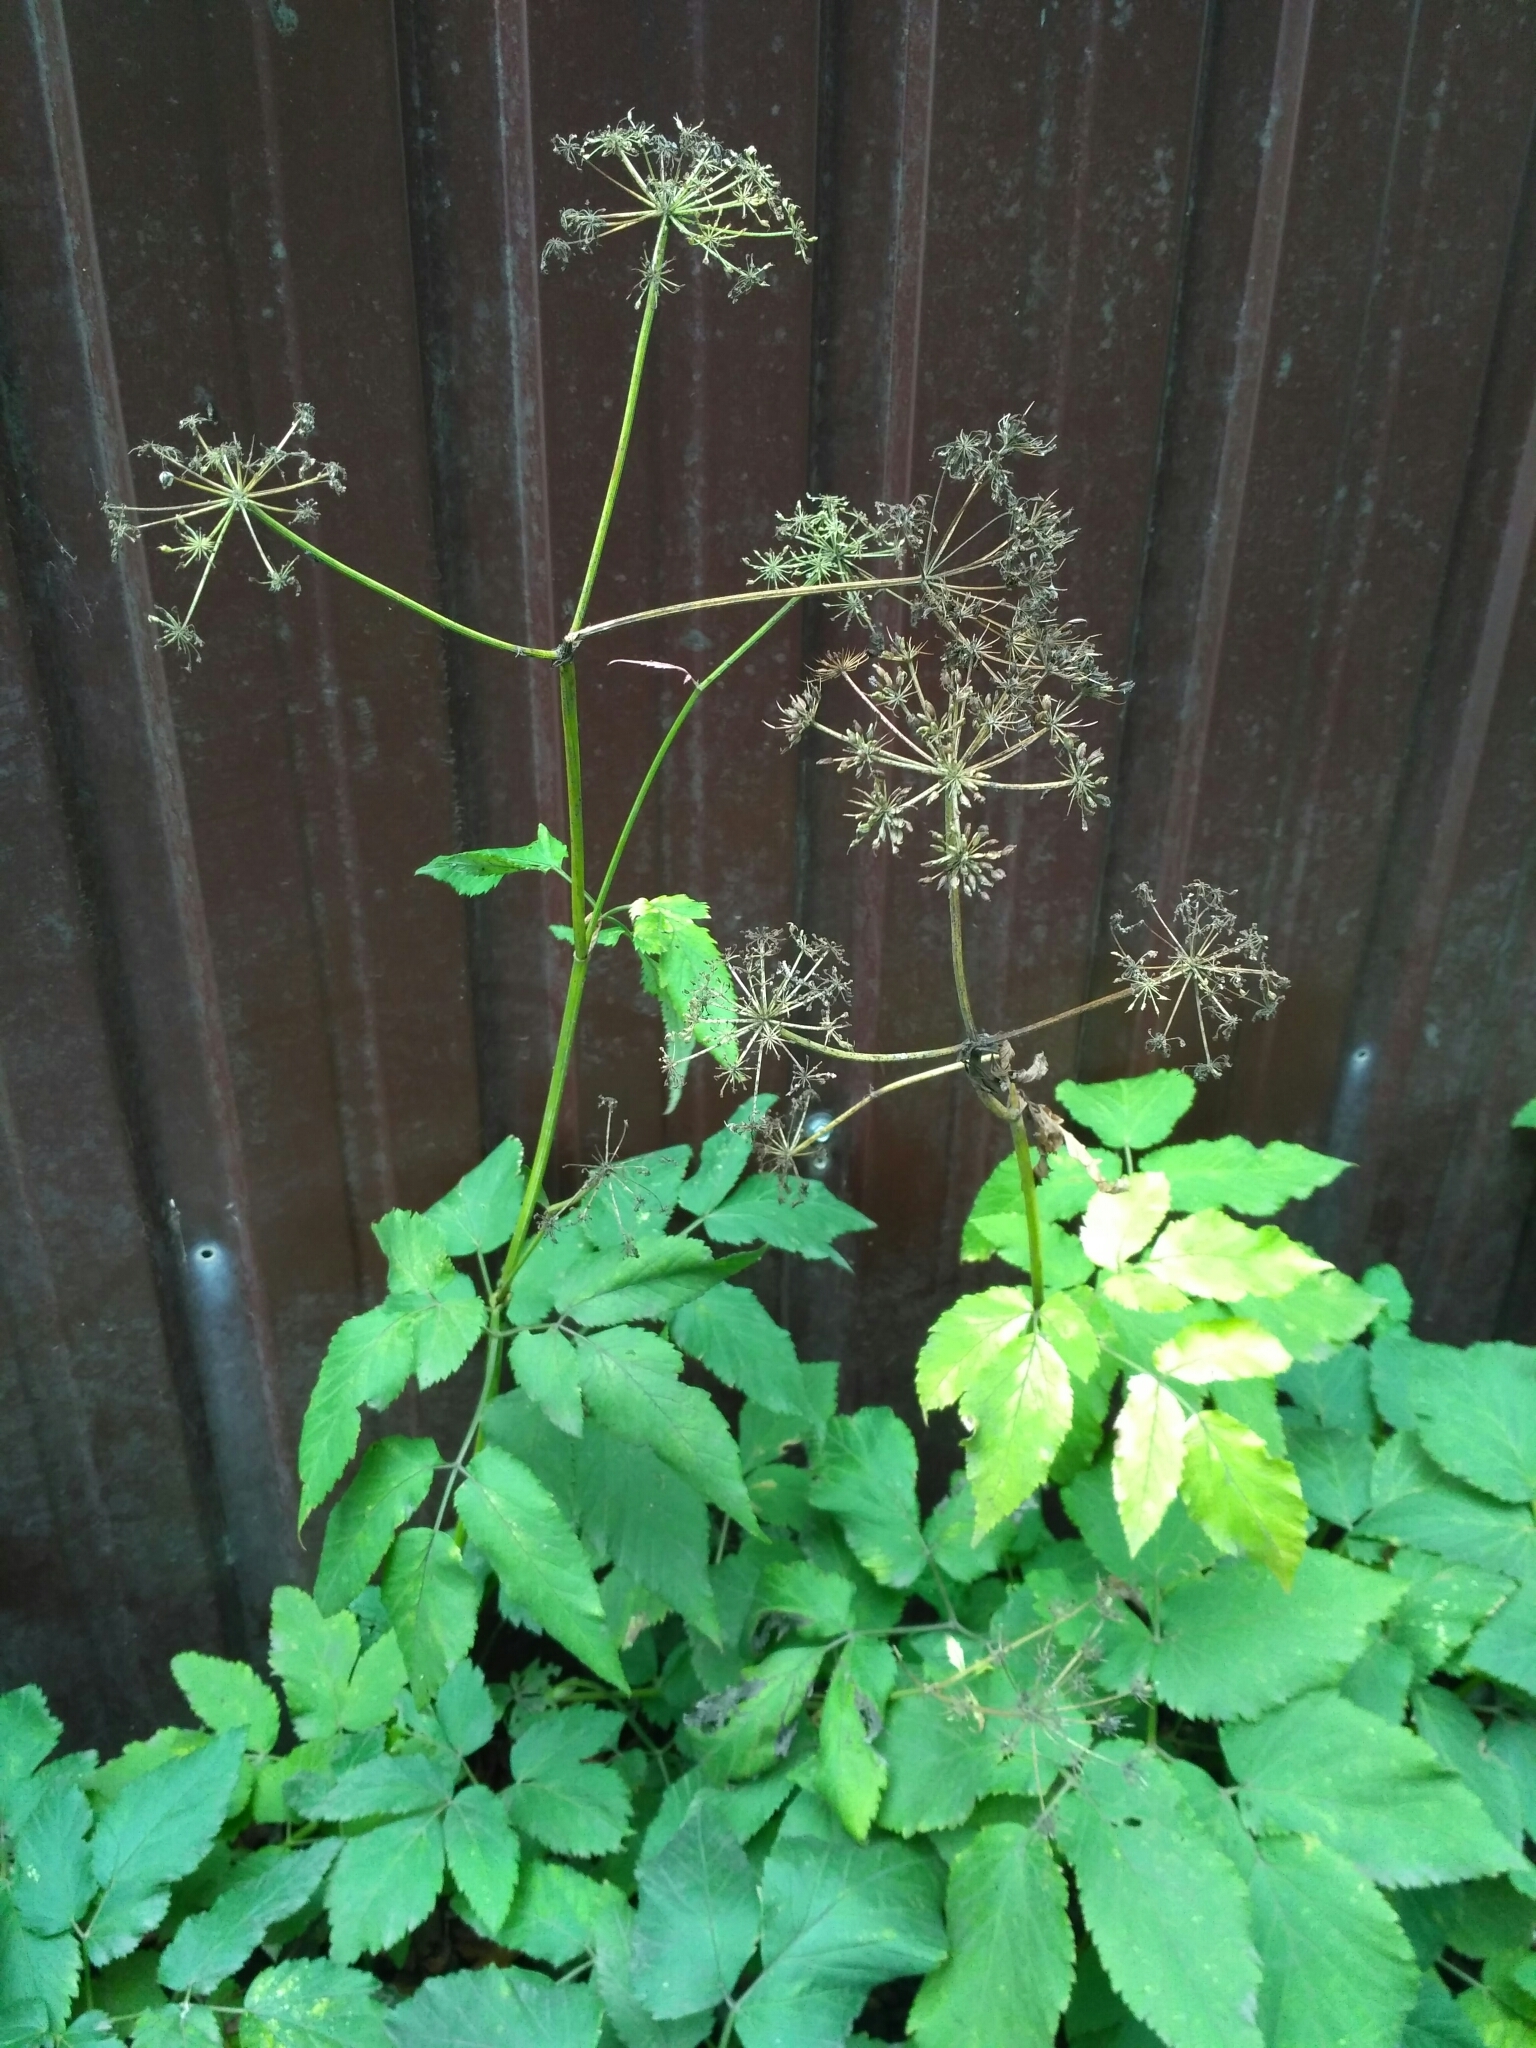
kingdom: Plantae
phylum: Tracheophyta
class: Magnoliopsida
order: Apiales
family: Apiaceae
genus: Aegopodium
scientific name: Aegopodium podagraria
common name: Ground-elder
